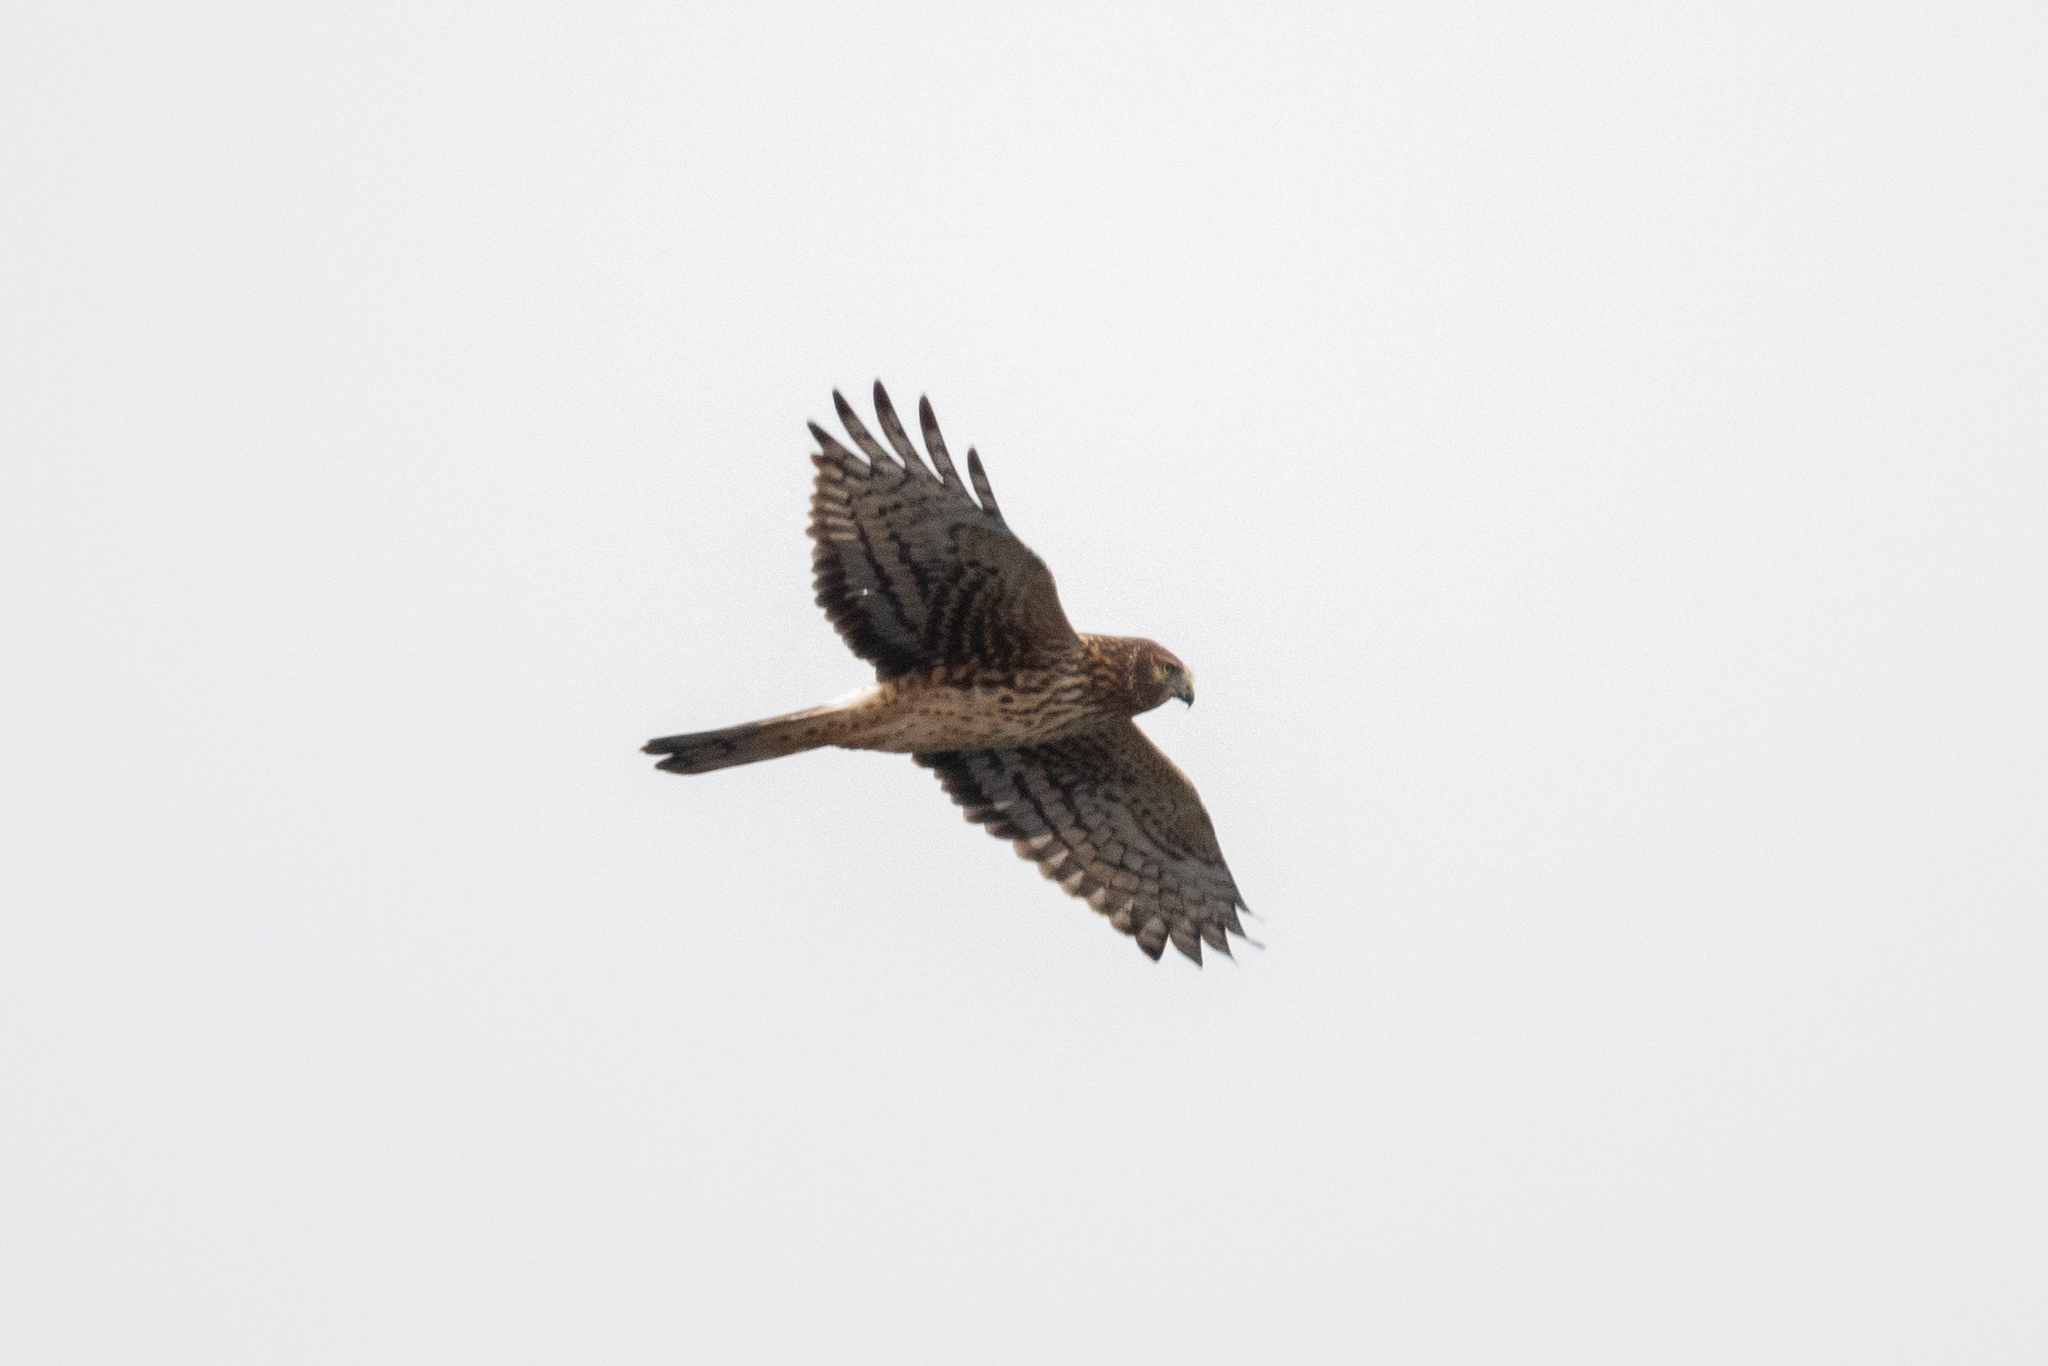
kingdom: Animalia
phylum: Chordata
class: Aves
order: Accipitriformes
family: Accipitridae
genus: Circus
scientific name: Circus cyaneus
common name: Hen harrier
